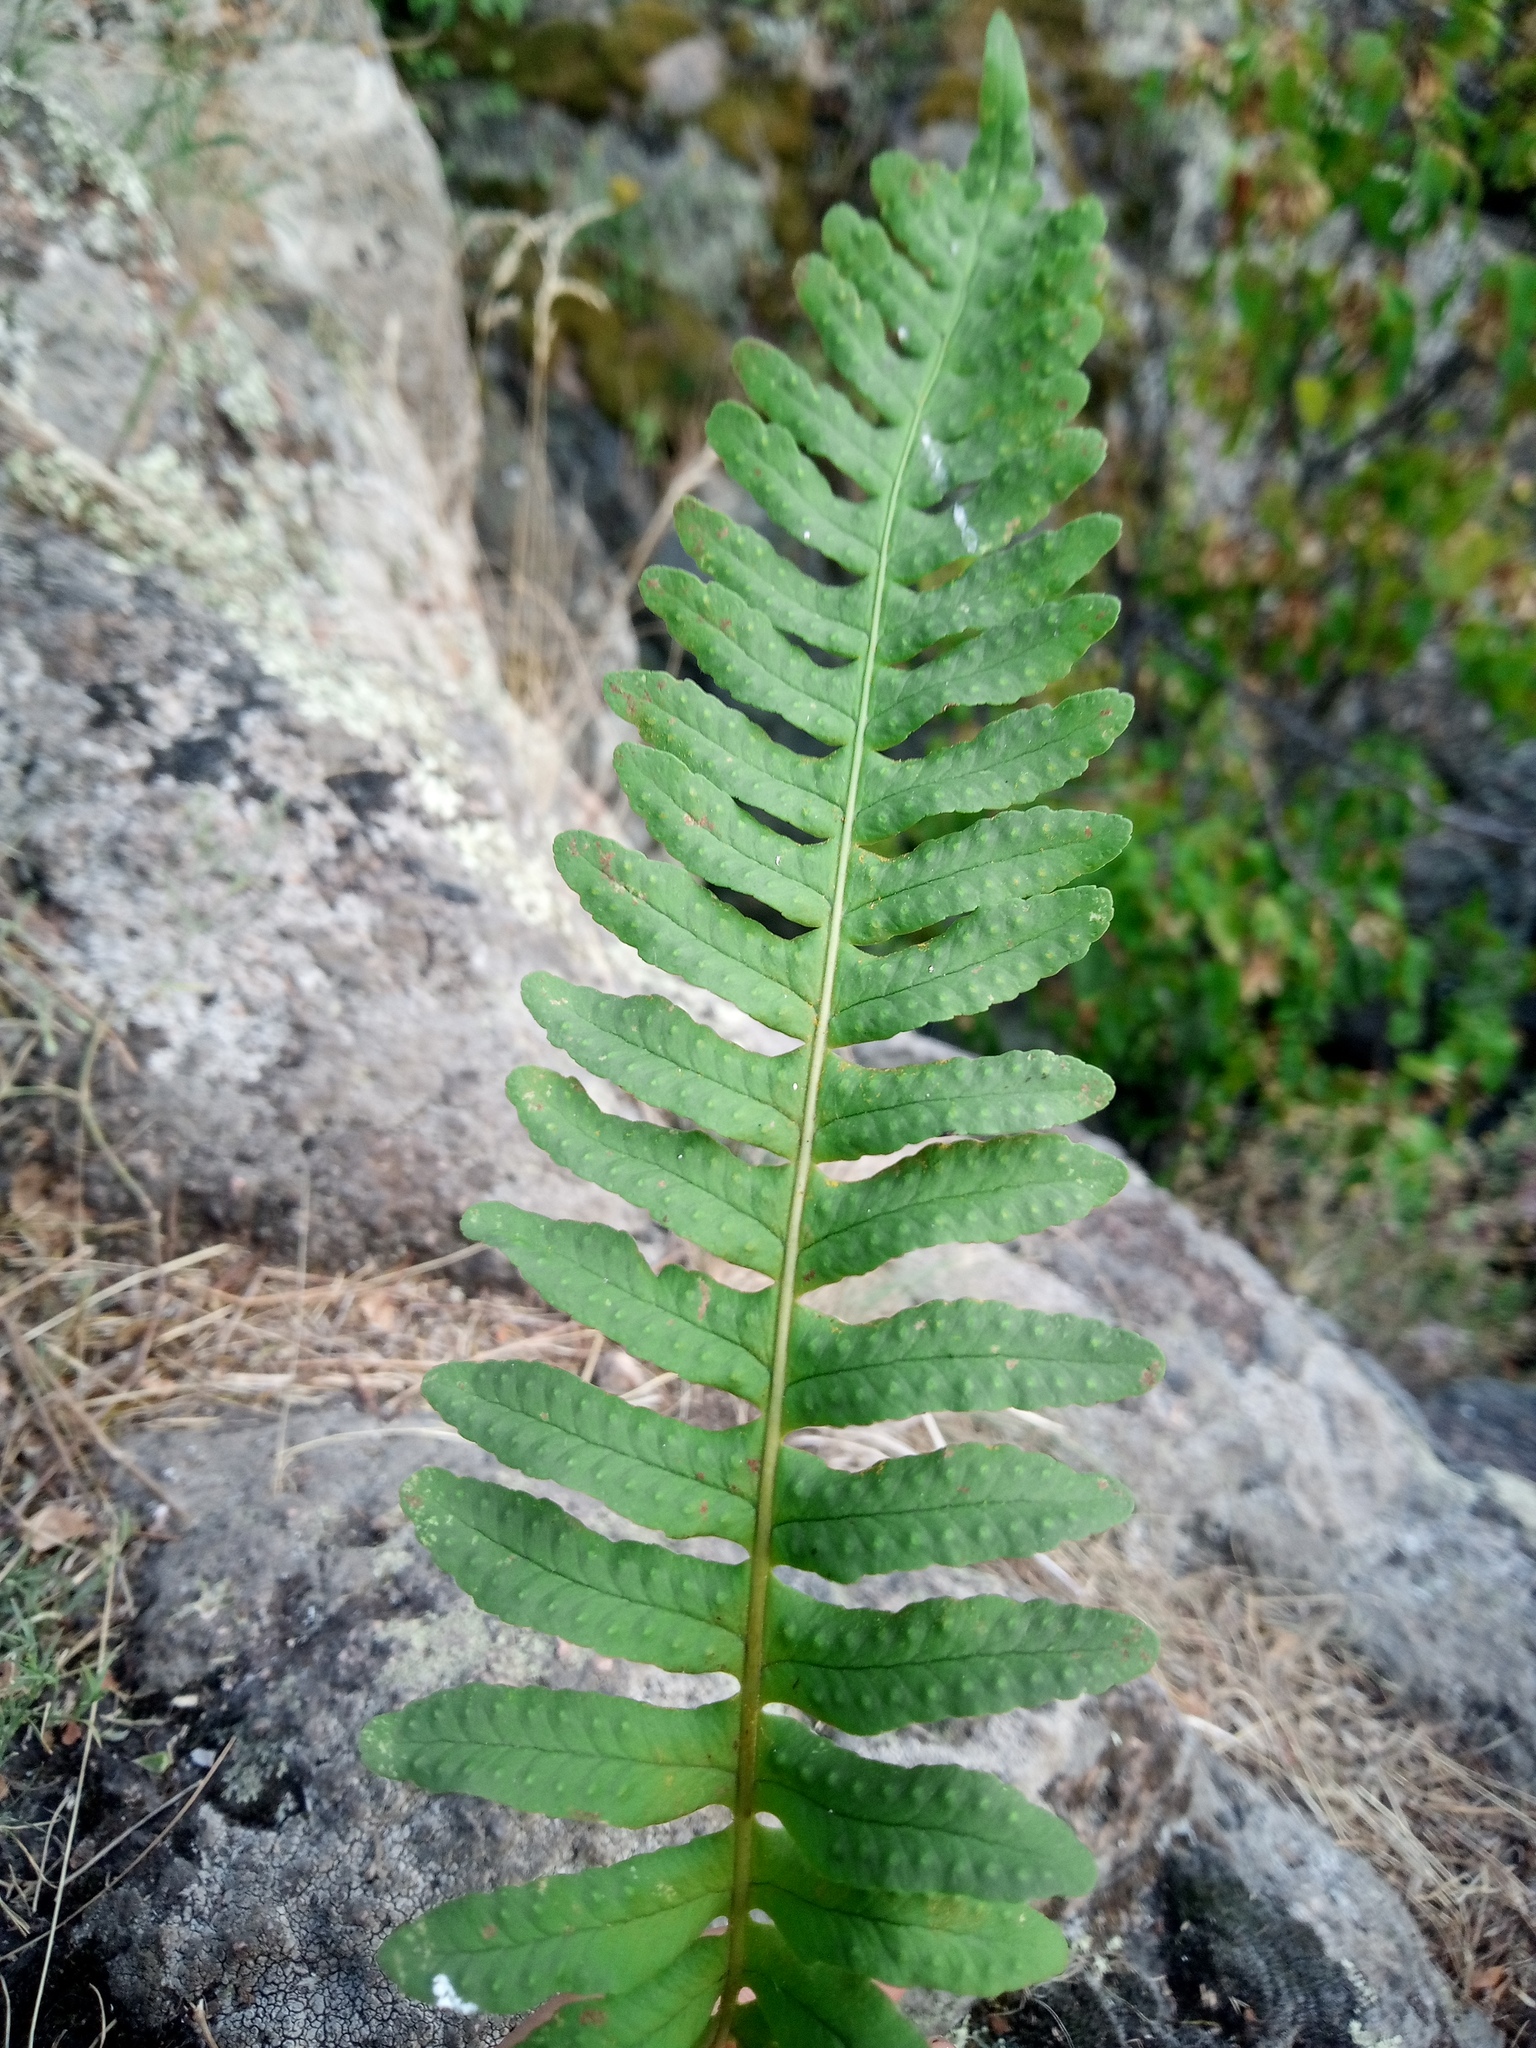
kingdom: Plantae
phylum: Tracheophyta
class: Polypodiopsida
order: Polypodiales
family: Polypodiaceae
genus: Polypodium
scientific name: Polypodium vulgare
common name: Common polypody
